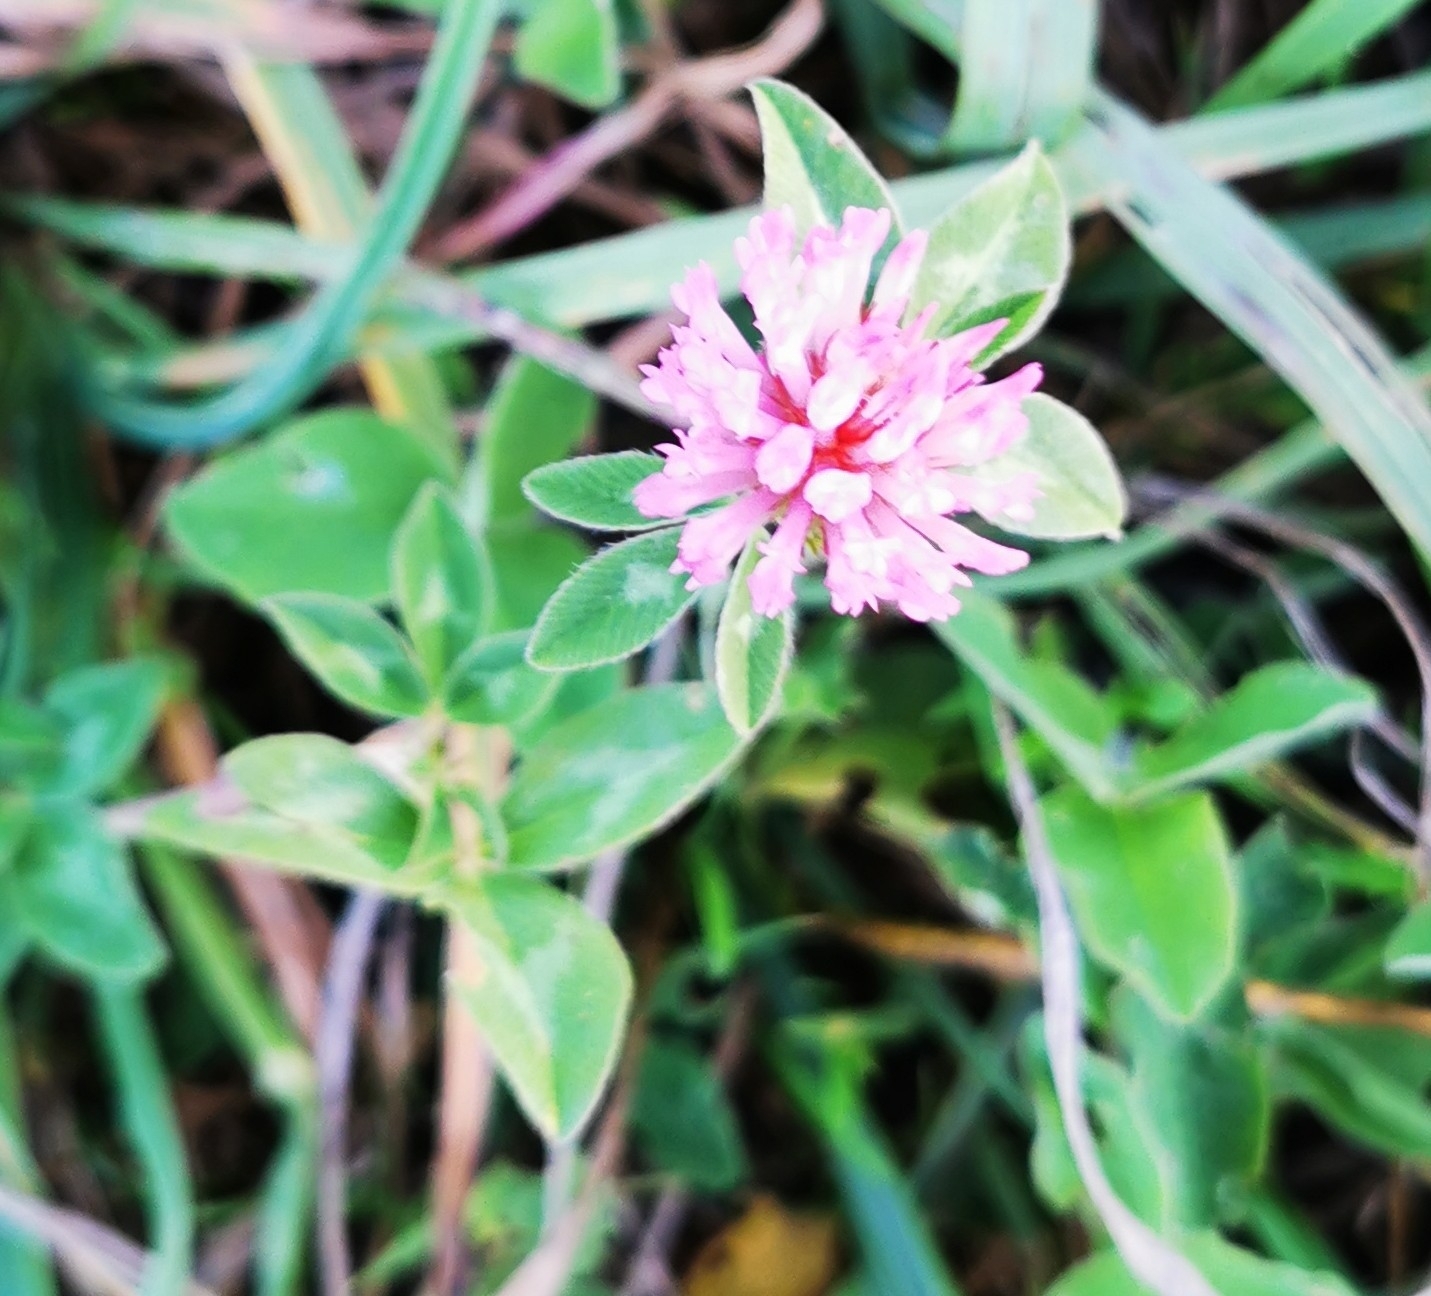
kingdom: Plantae
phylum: Tracheophyta
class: Magnoliopsida
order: Fabales
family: Fabaceae
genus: Trifolium
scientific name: Trifolium pratense
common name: Red clover
